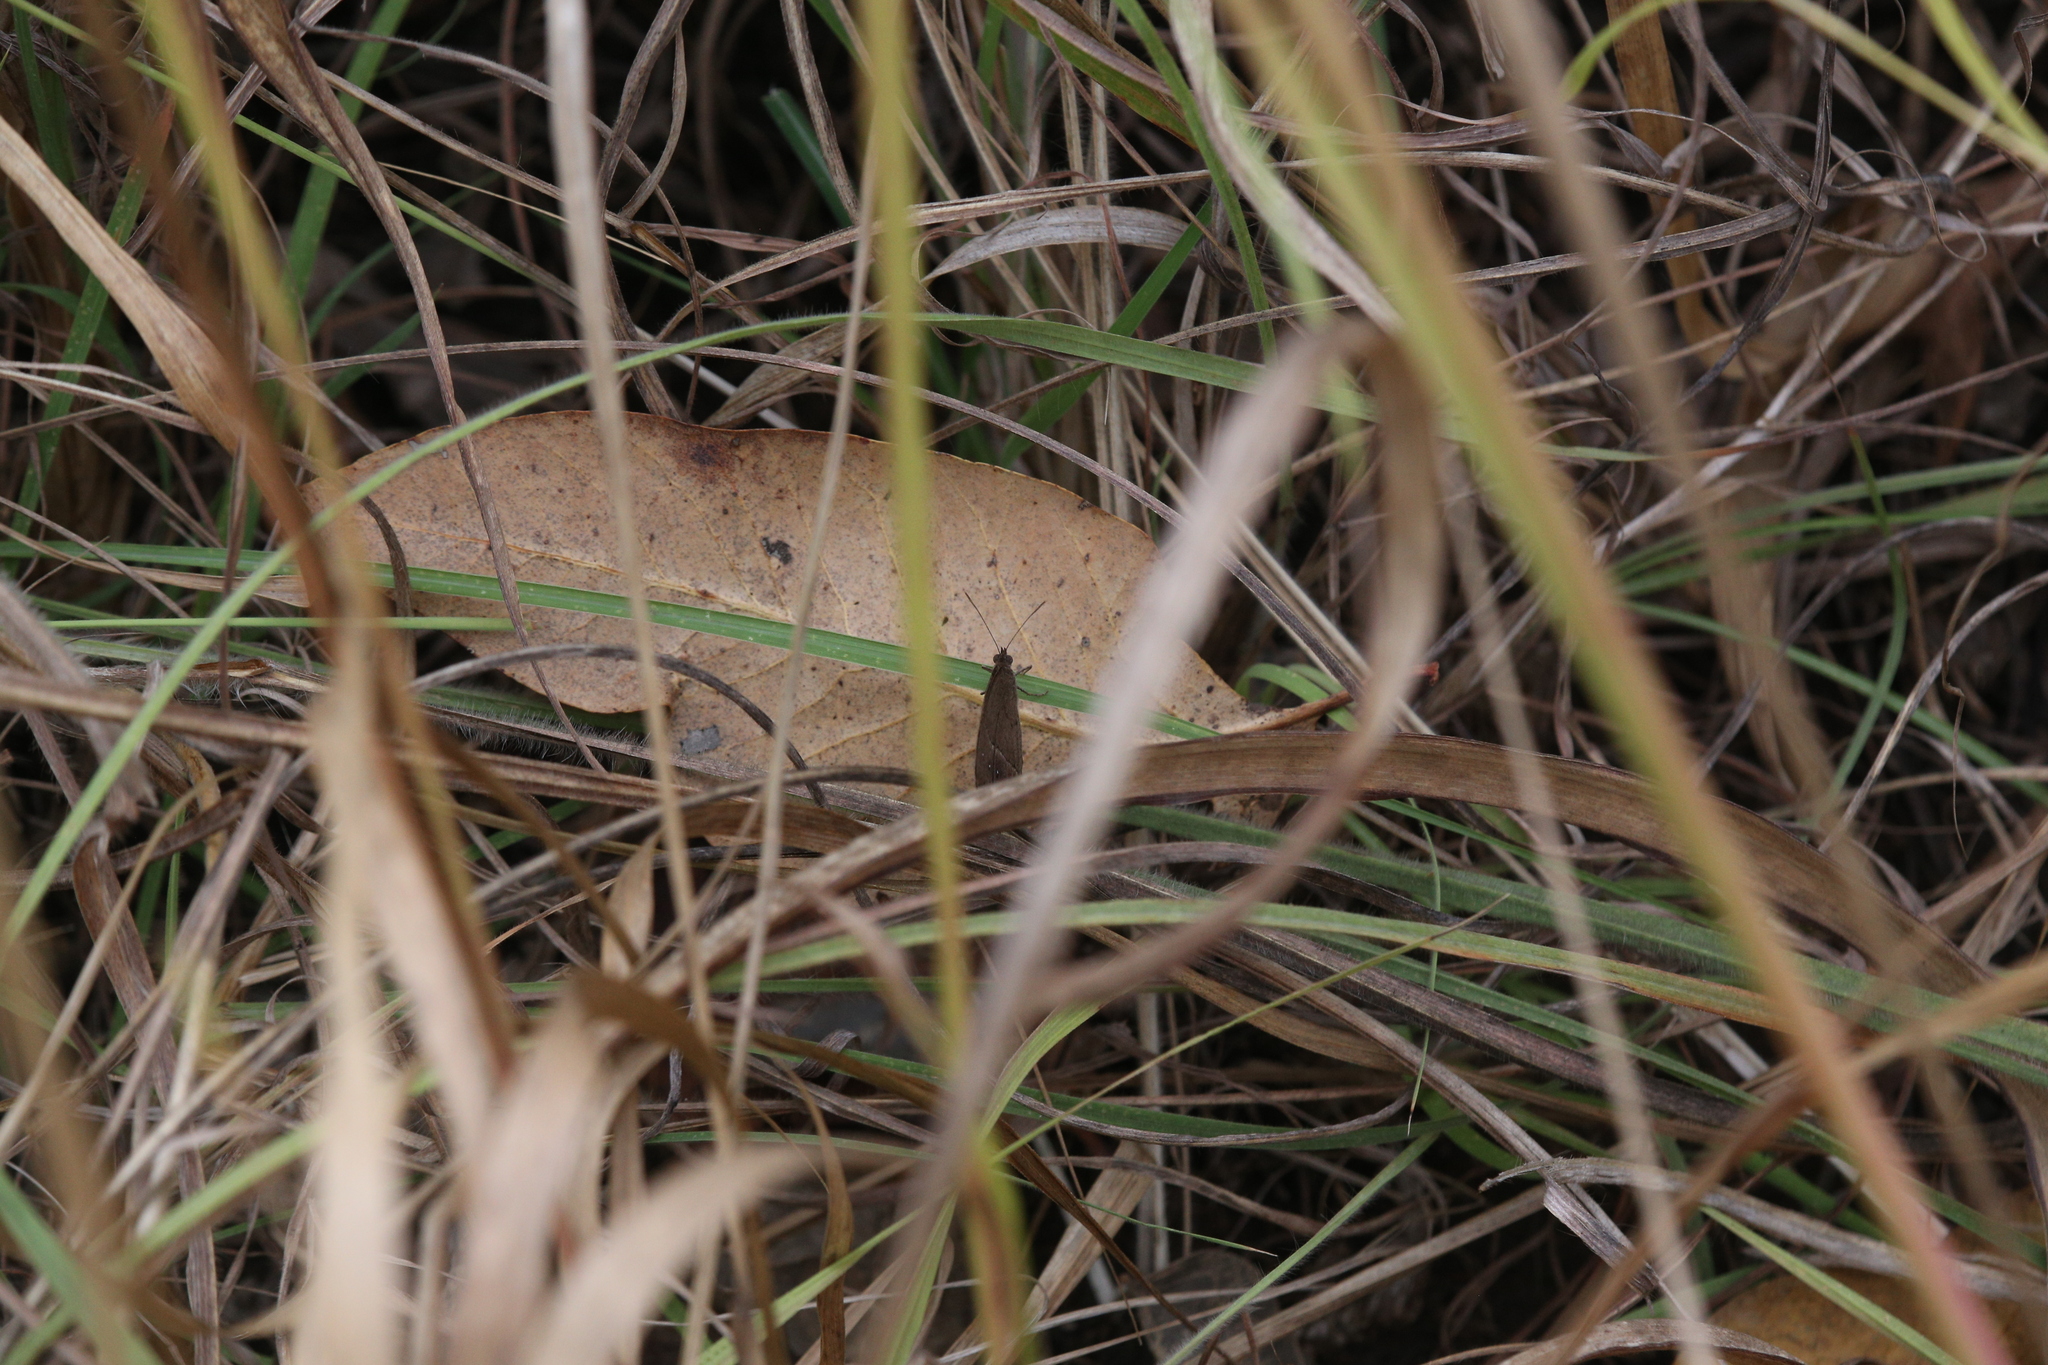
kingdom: Animalia
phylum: Arthropoda
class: Insecta
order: Lepidoptera
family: Nymphalidae
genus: Mycalesis
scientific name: Mycalesis perseus
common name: Dingy bushbrown
